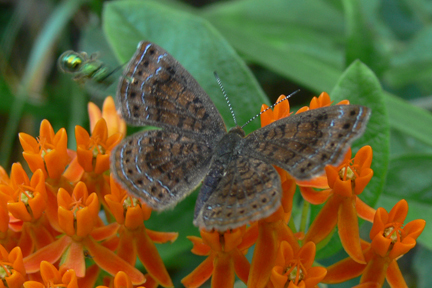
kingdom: Animalia
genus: Calephelis
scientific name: Calephelis borealis
